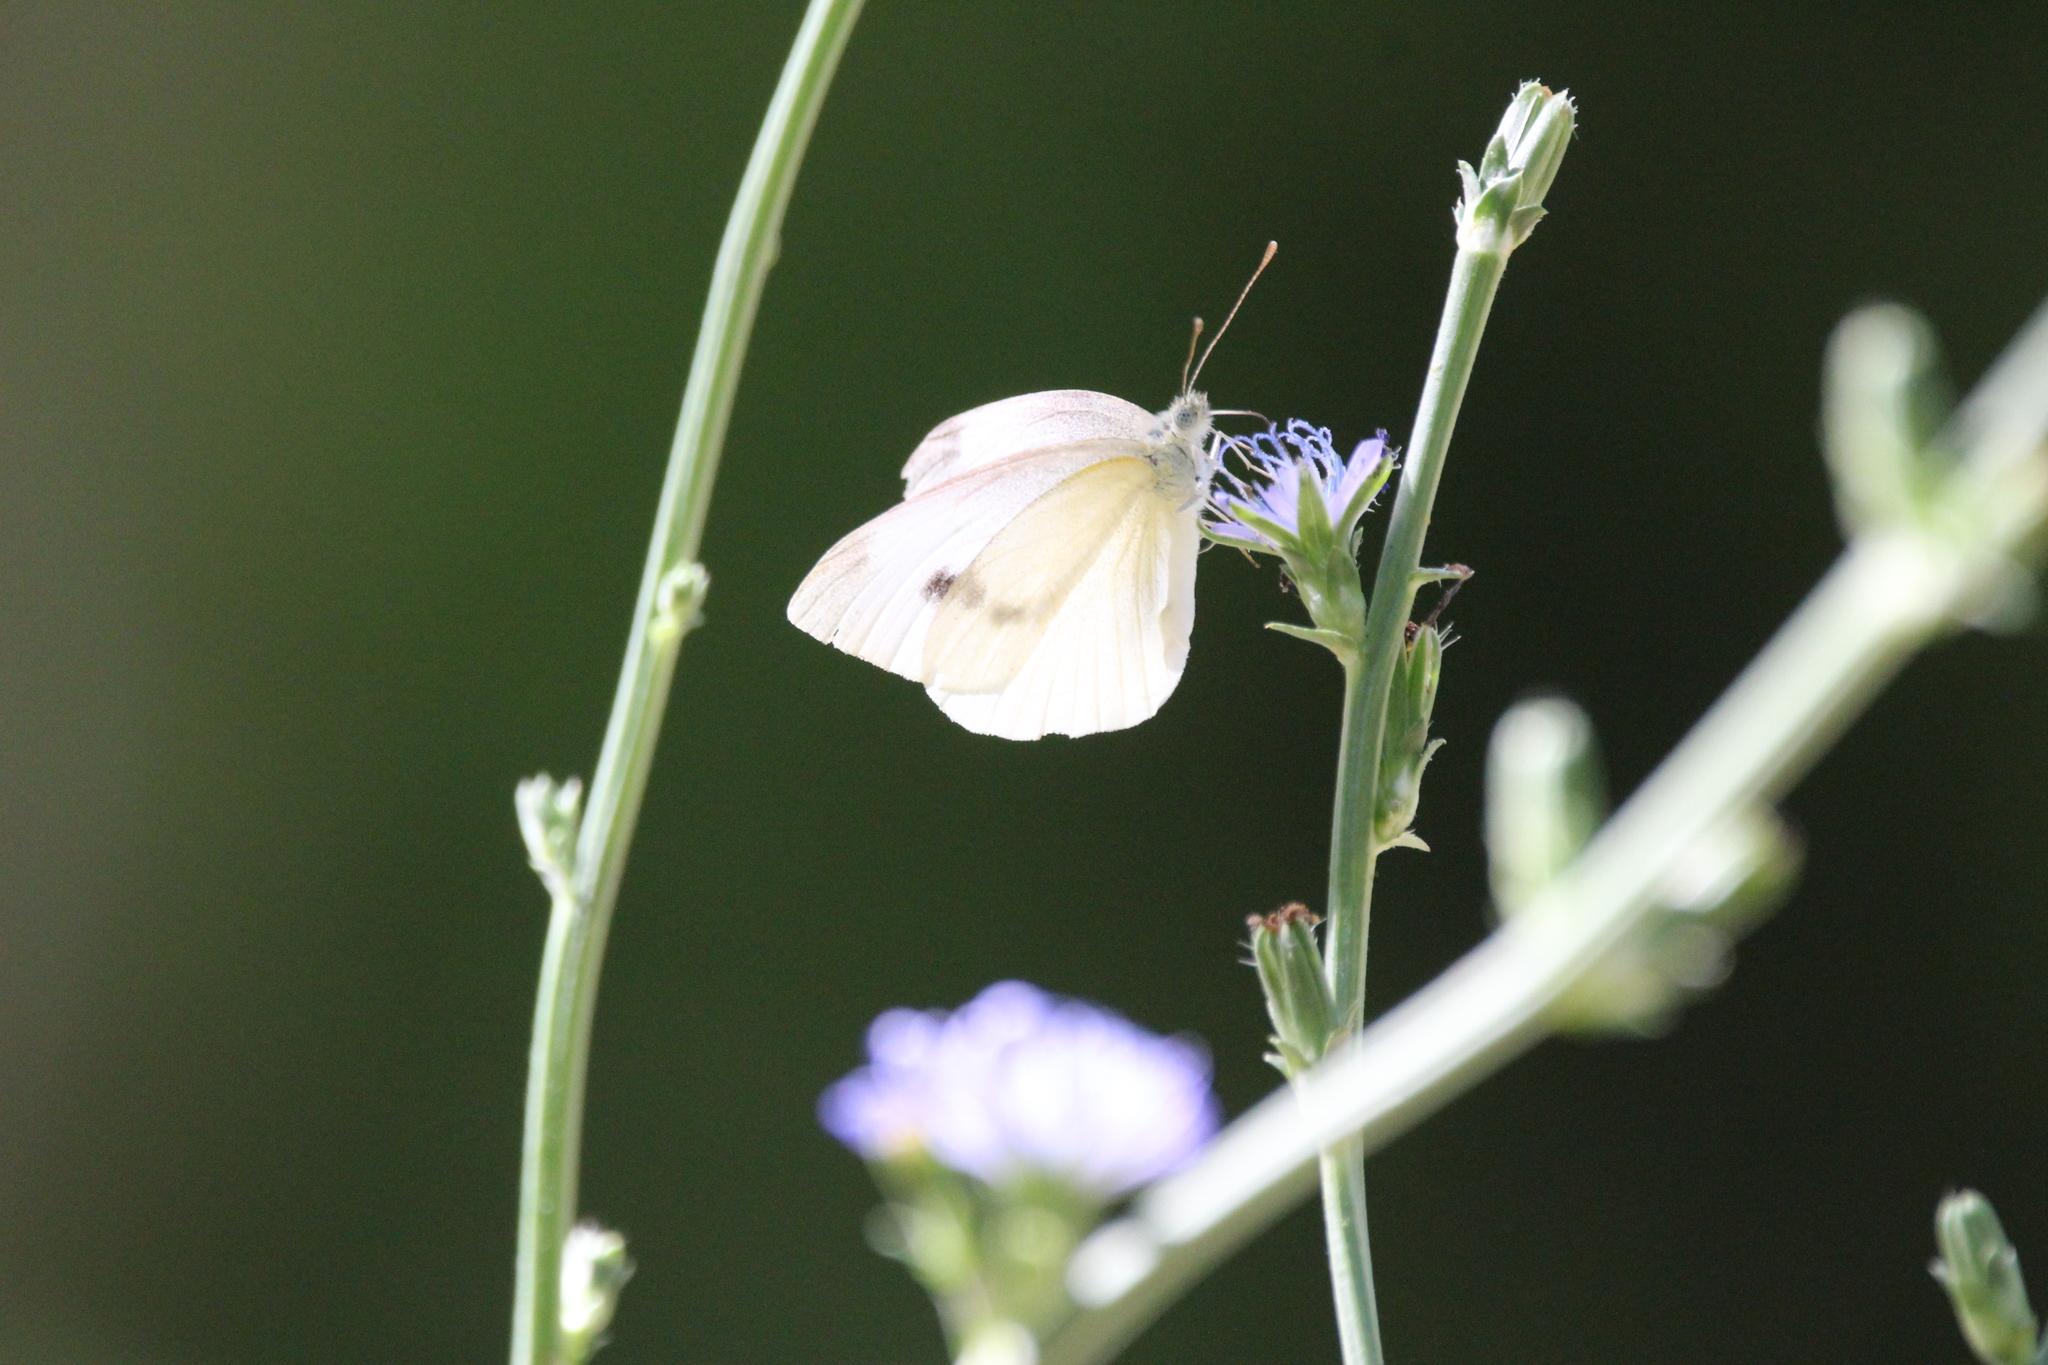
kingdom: Animalia
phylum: Arthropoda
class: Insecta
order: Lepidoptera
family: Pieridae
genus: Pieris
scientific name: Pieris rapae
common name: Small white
